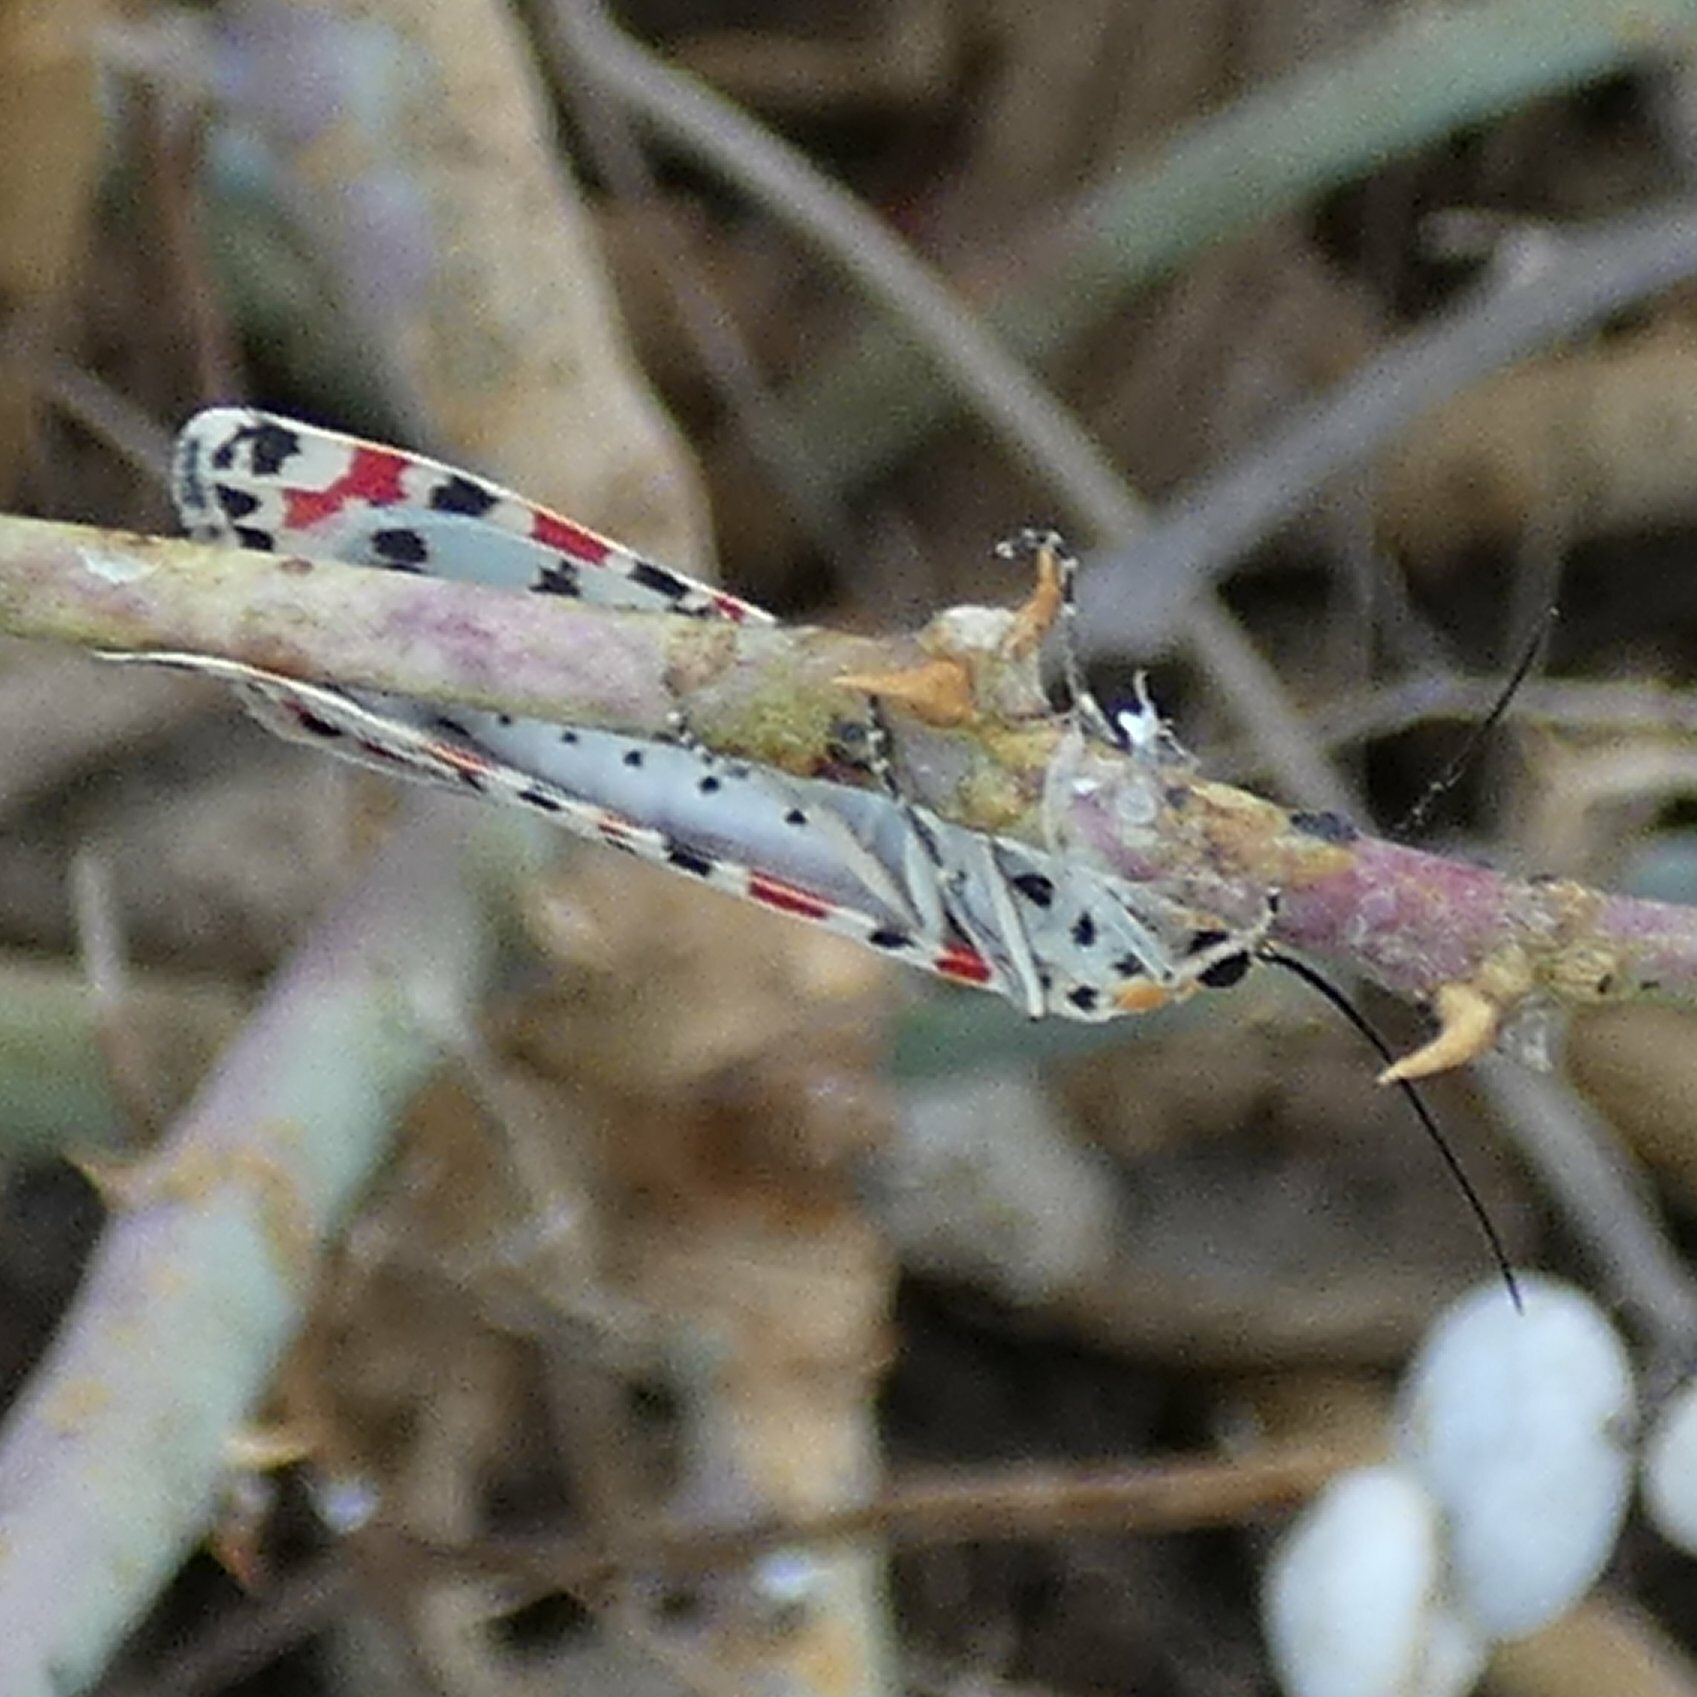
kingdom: Animalia
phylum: Arthropoda
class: Insecta
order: Lepidoptera
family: Erebidae
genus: Utetheisa
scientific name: Utetheisa pulchella
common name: Crimson speckled
